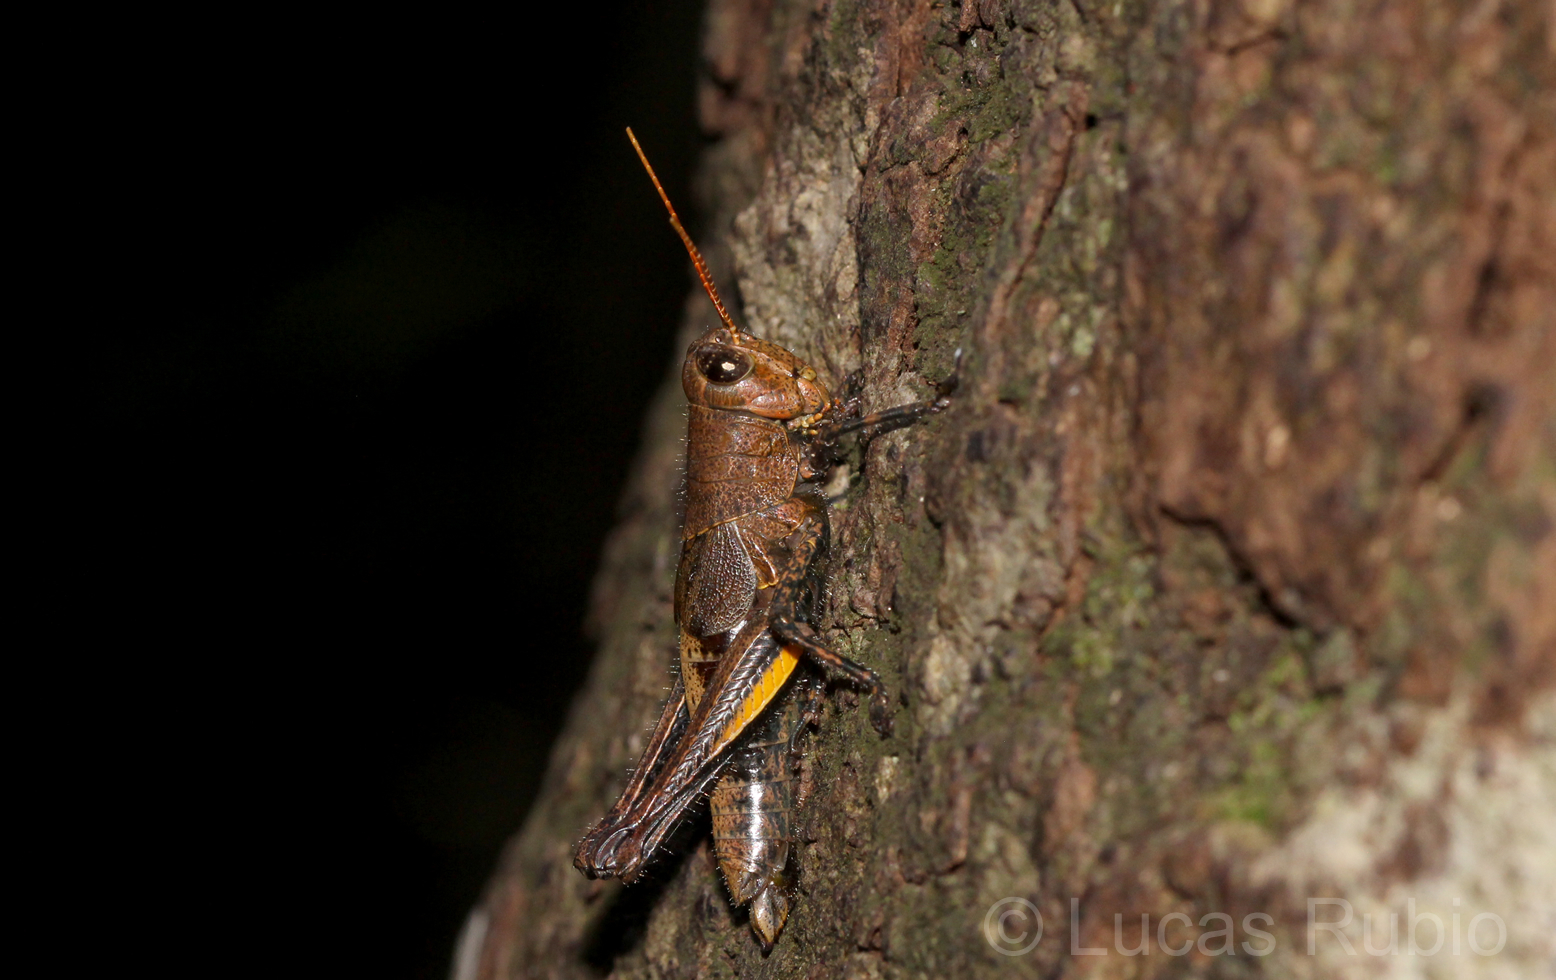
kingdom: Animalia
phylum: Arthropoda
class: Insecta
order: Orthoptera
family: Acrididae
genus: Dichromatos
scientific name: Dichromatos schrottkyi
